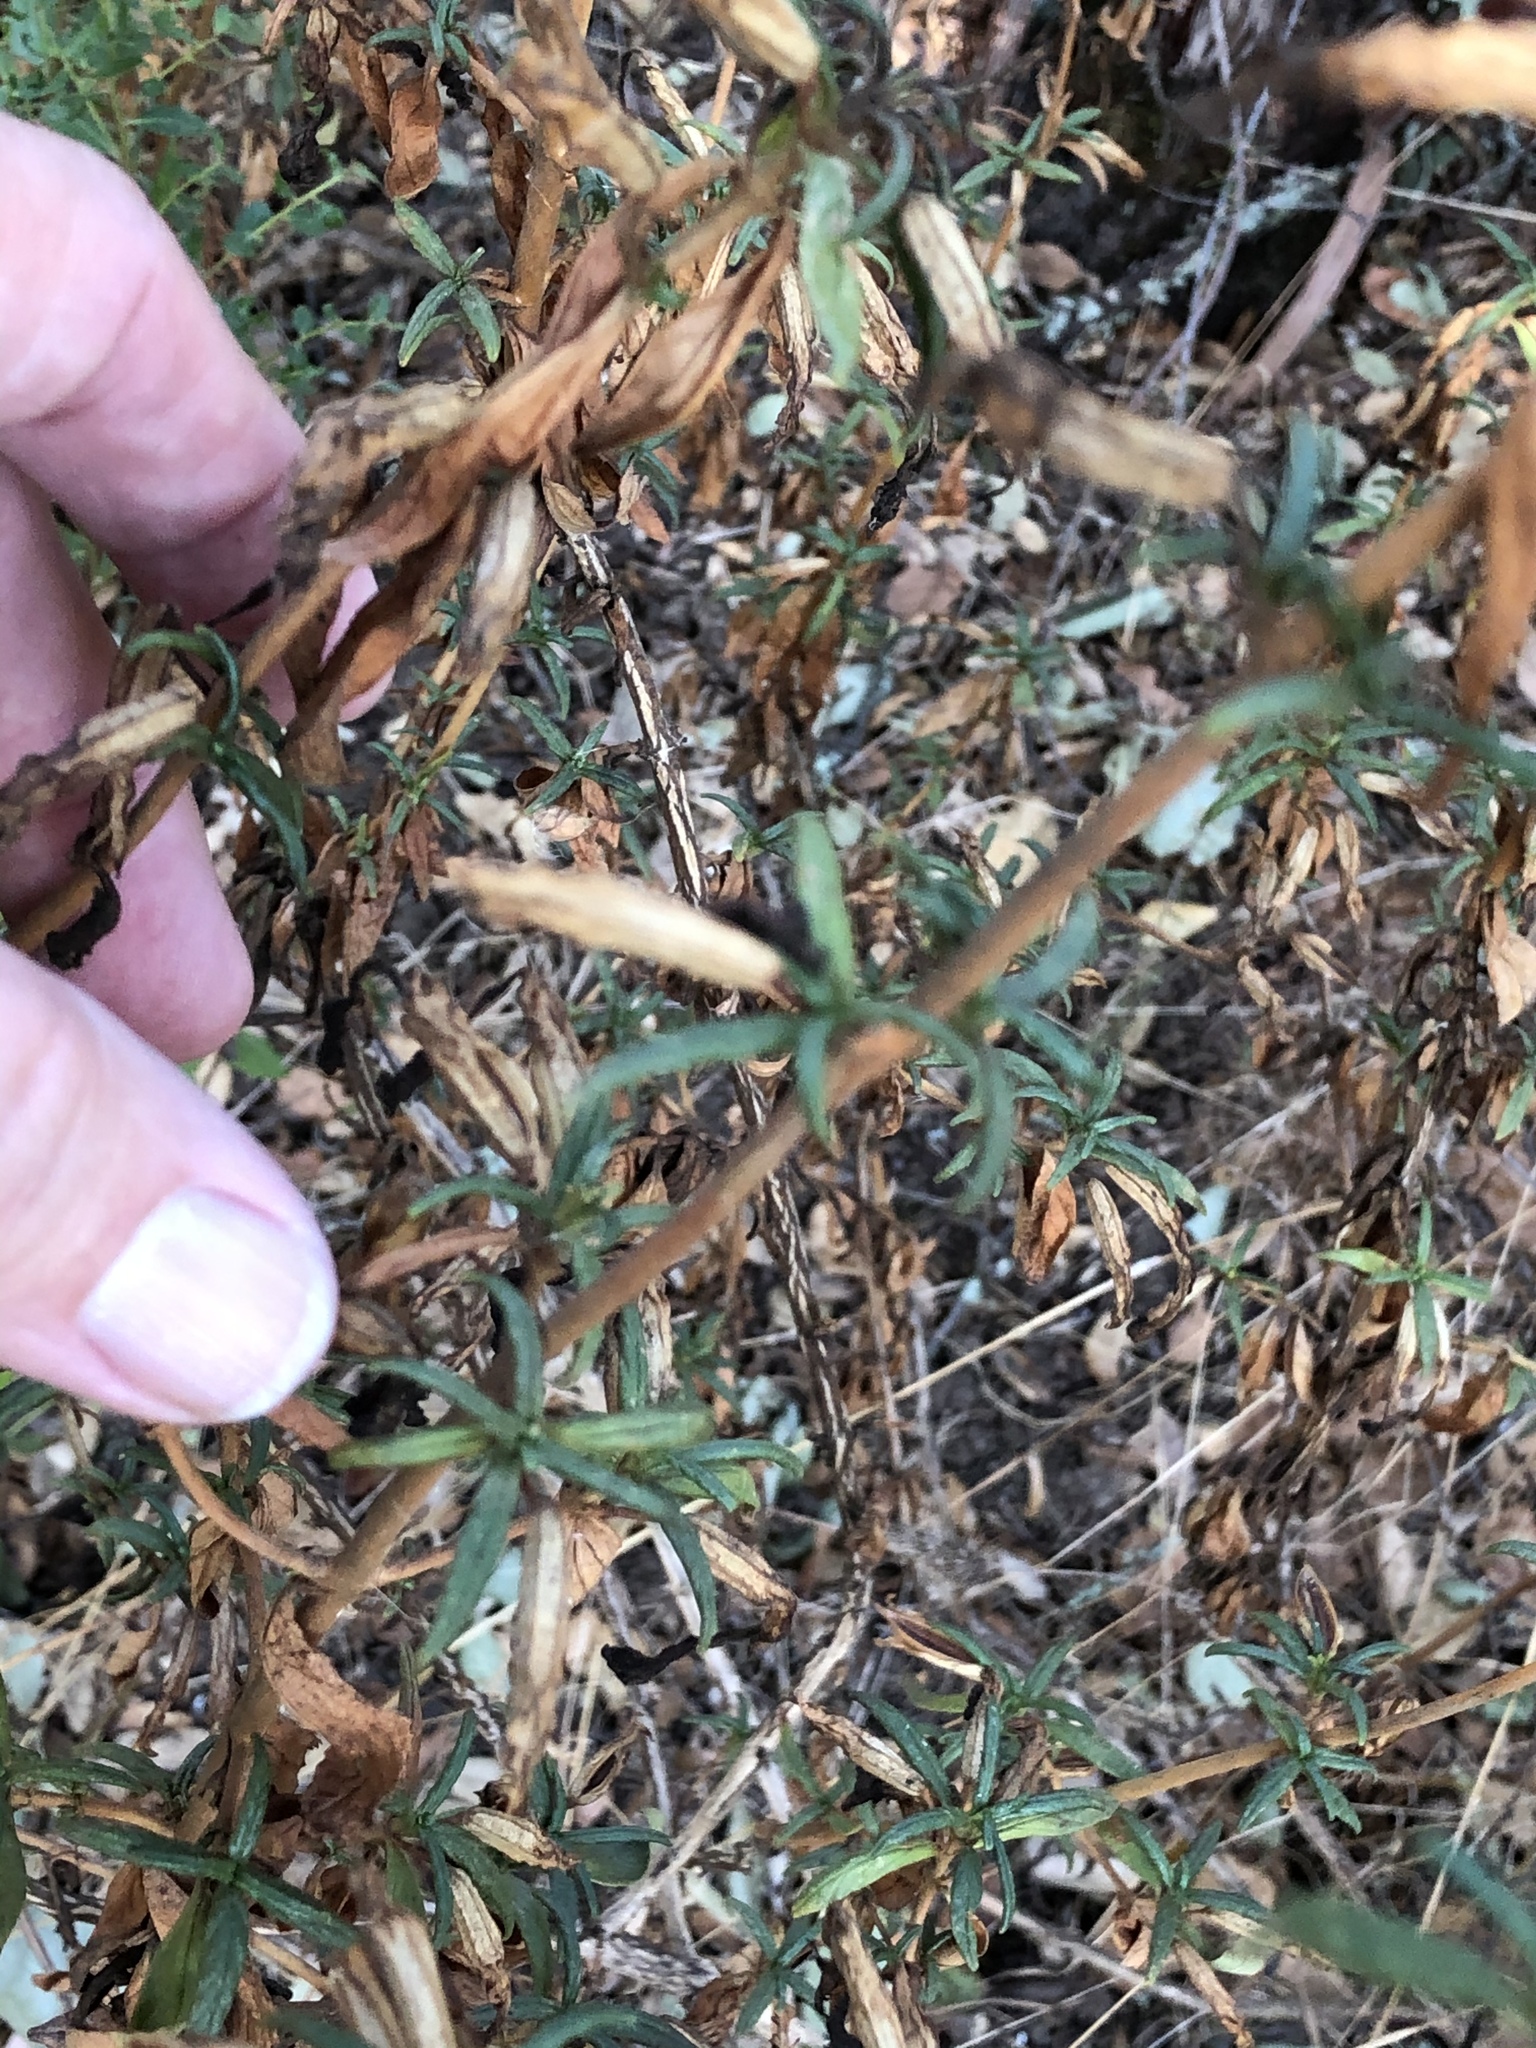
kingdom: Plantae
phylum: Tracheophyta
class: Magnoliopsida
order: Lamiales
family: Phrymaceae
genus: Diplacus
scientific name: Diplacus aurantiacus
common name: Bush monkey-flower
